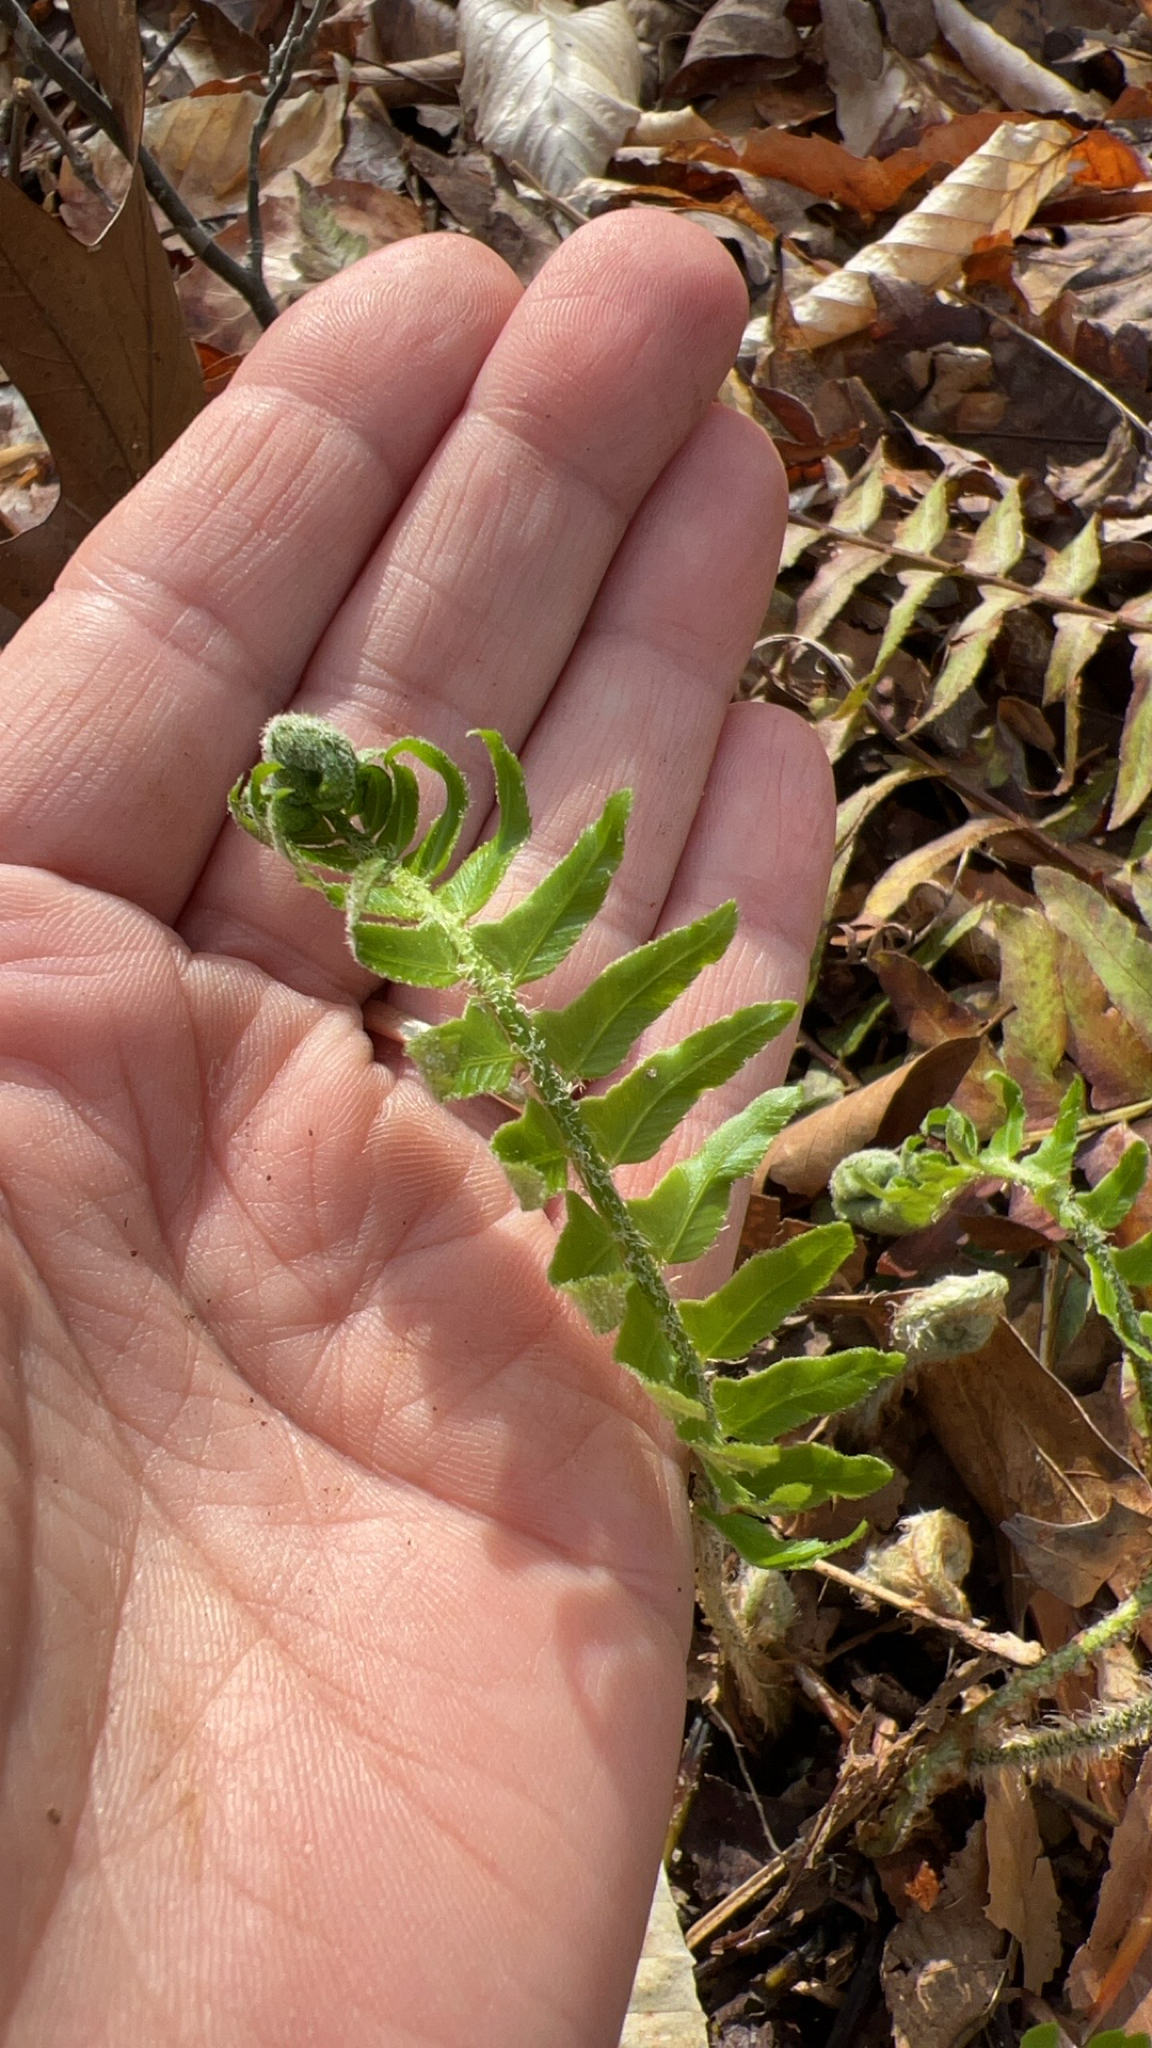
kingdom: Plantae
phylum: Tracheophyta
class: Polypodiopsida
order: Polypodiales
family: Dryopteridaceae
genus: Polystichum
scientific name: Polystichum acrostichoides
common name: Christmas fern
